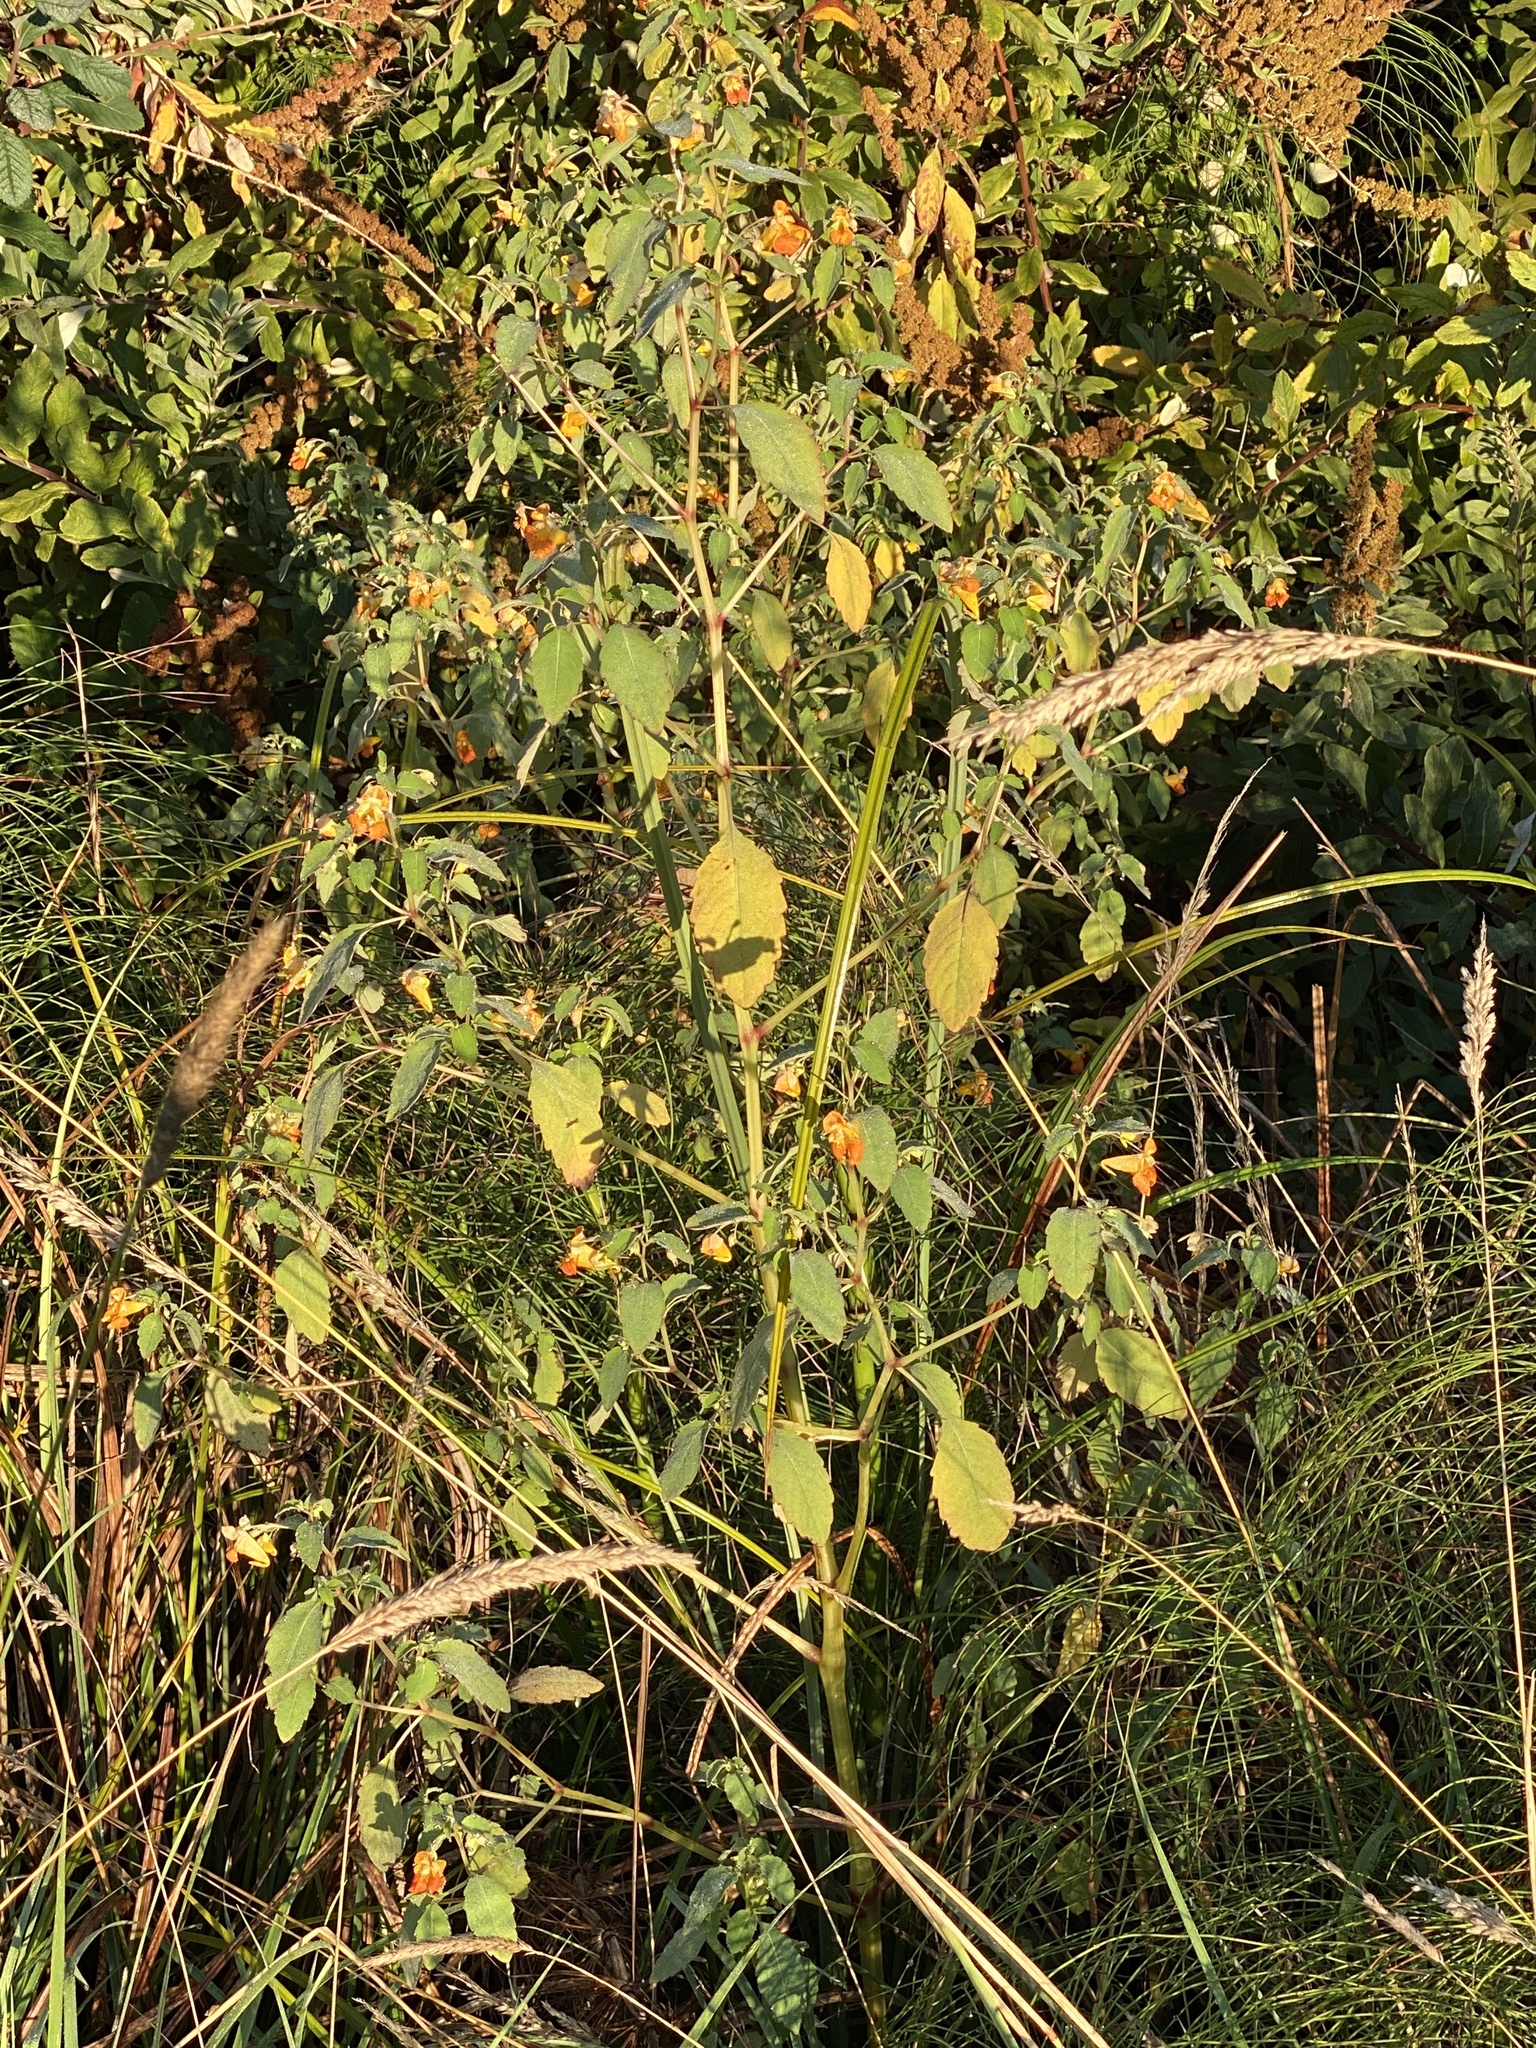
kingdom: Plantae
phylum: Tracheophyta
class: Magnoliopsida
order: Ericales
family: Balsaminaceae
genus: Impatiens
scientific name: Impatiens capensis
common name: Orange balsam
